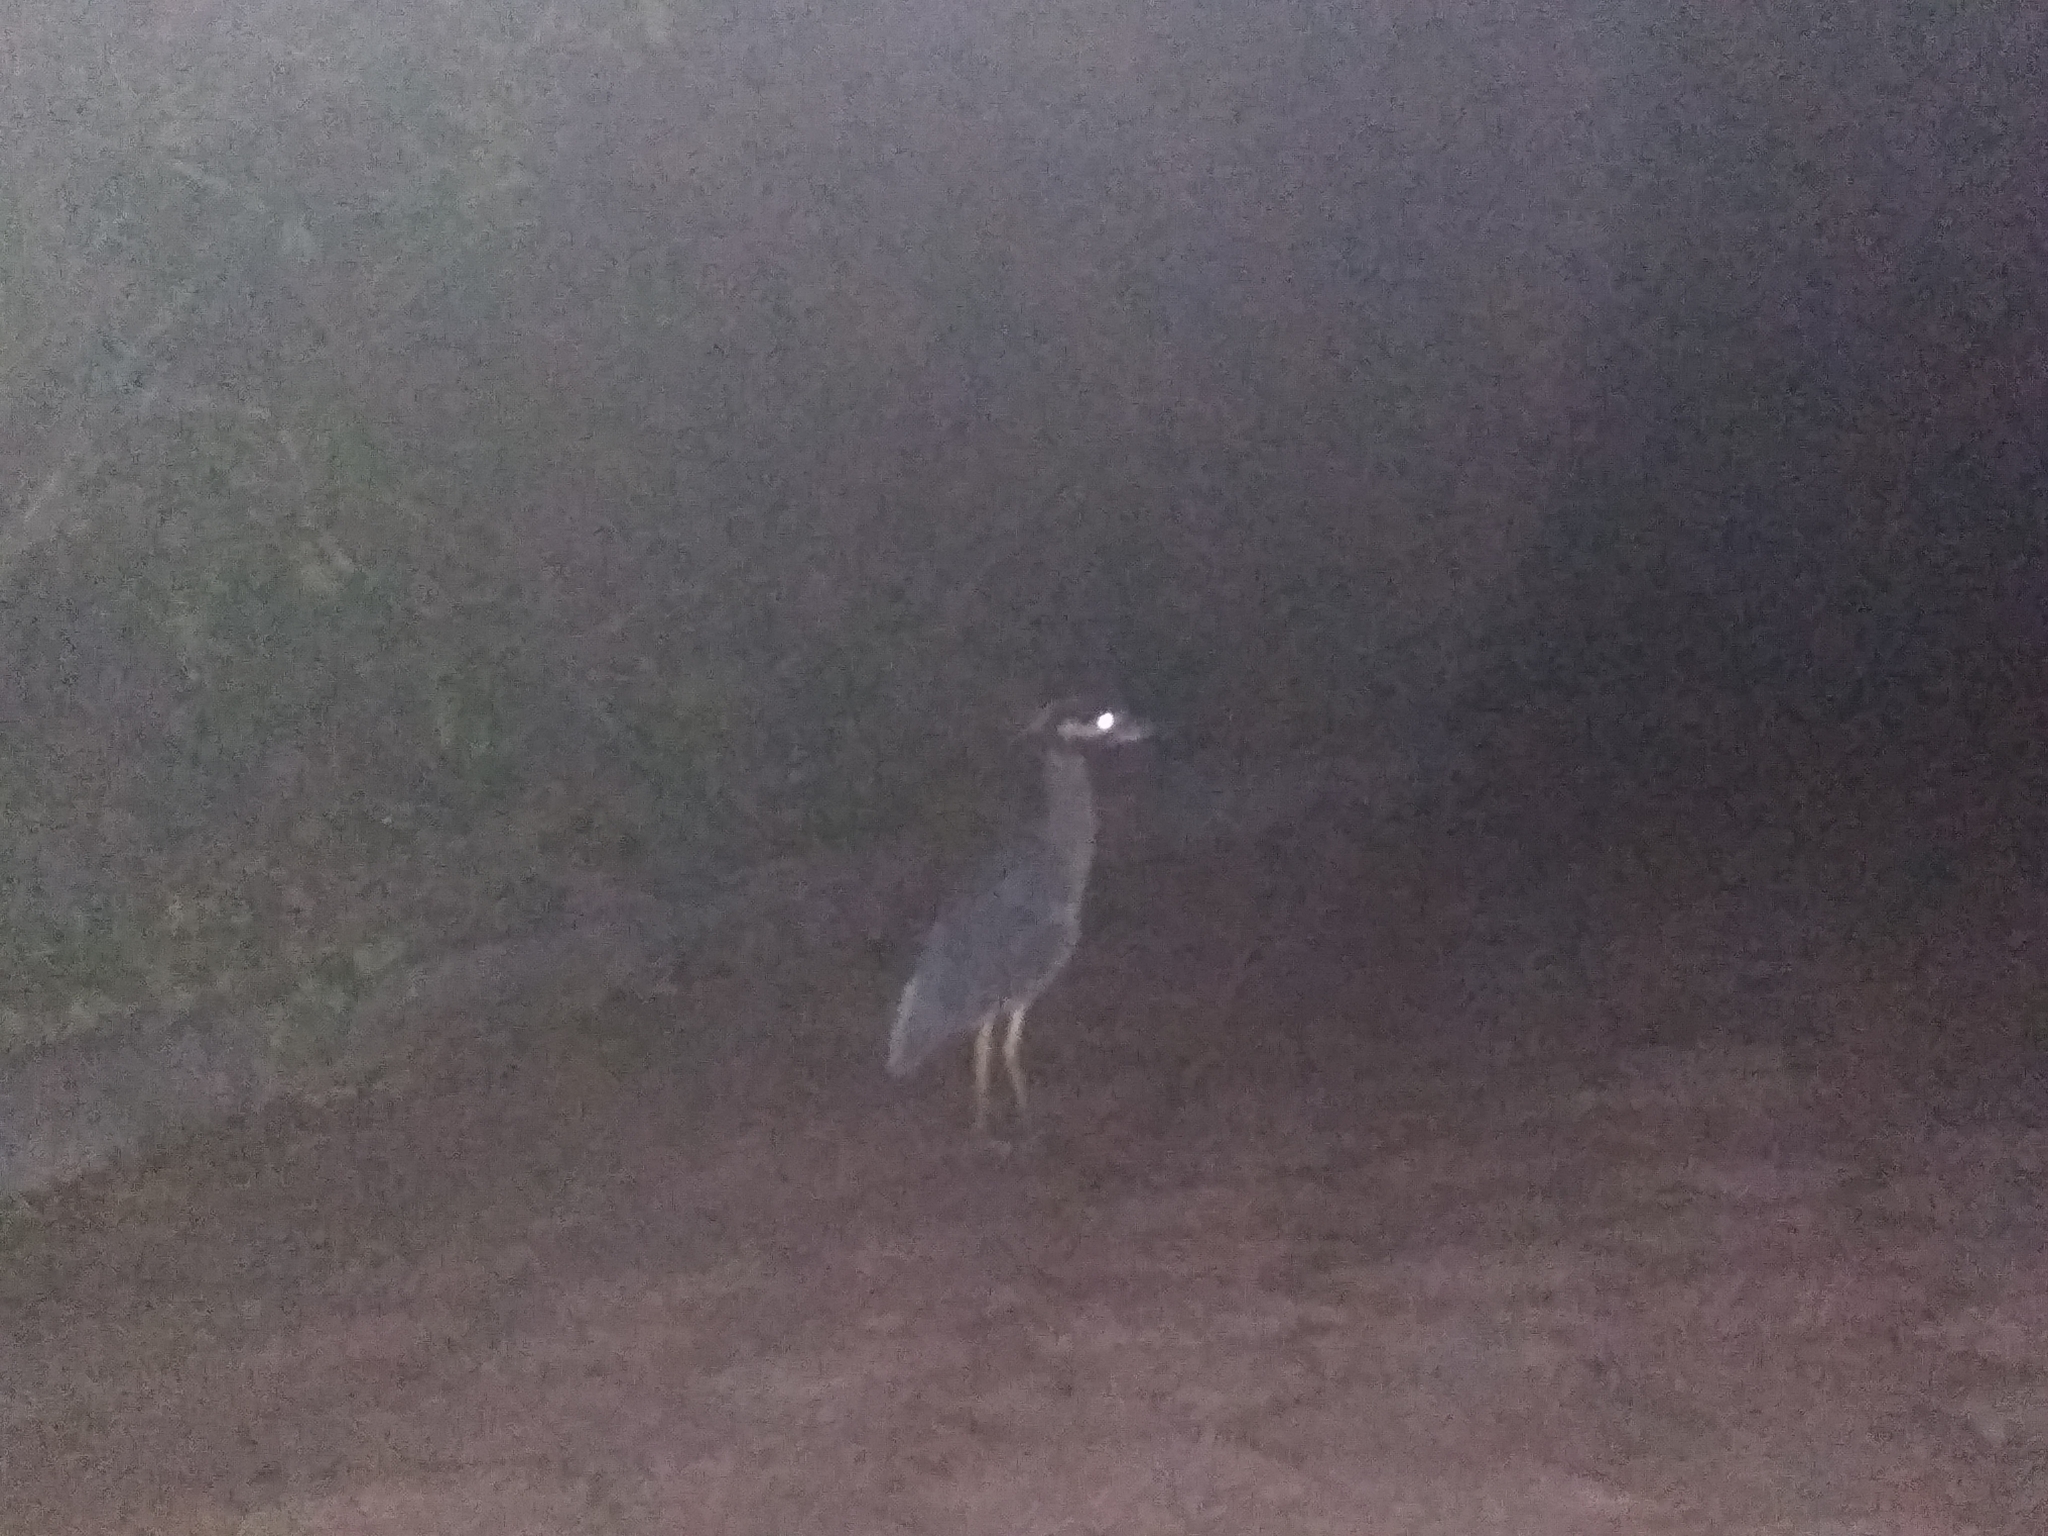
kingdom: Animalia
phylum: Chordata
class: Aves
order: Pelecaniformes
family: Ardeidae
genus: Nyctanassa
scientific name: Nyctanassa violacea
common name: Yellow-crowned night heron
